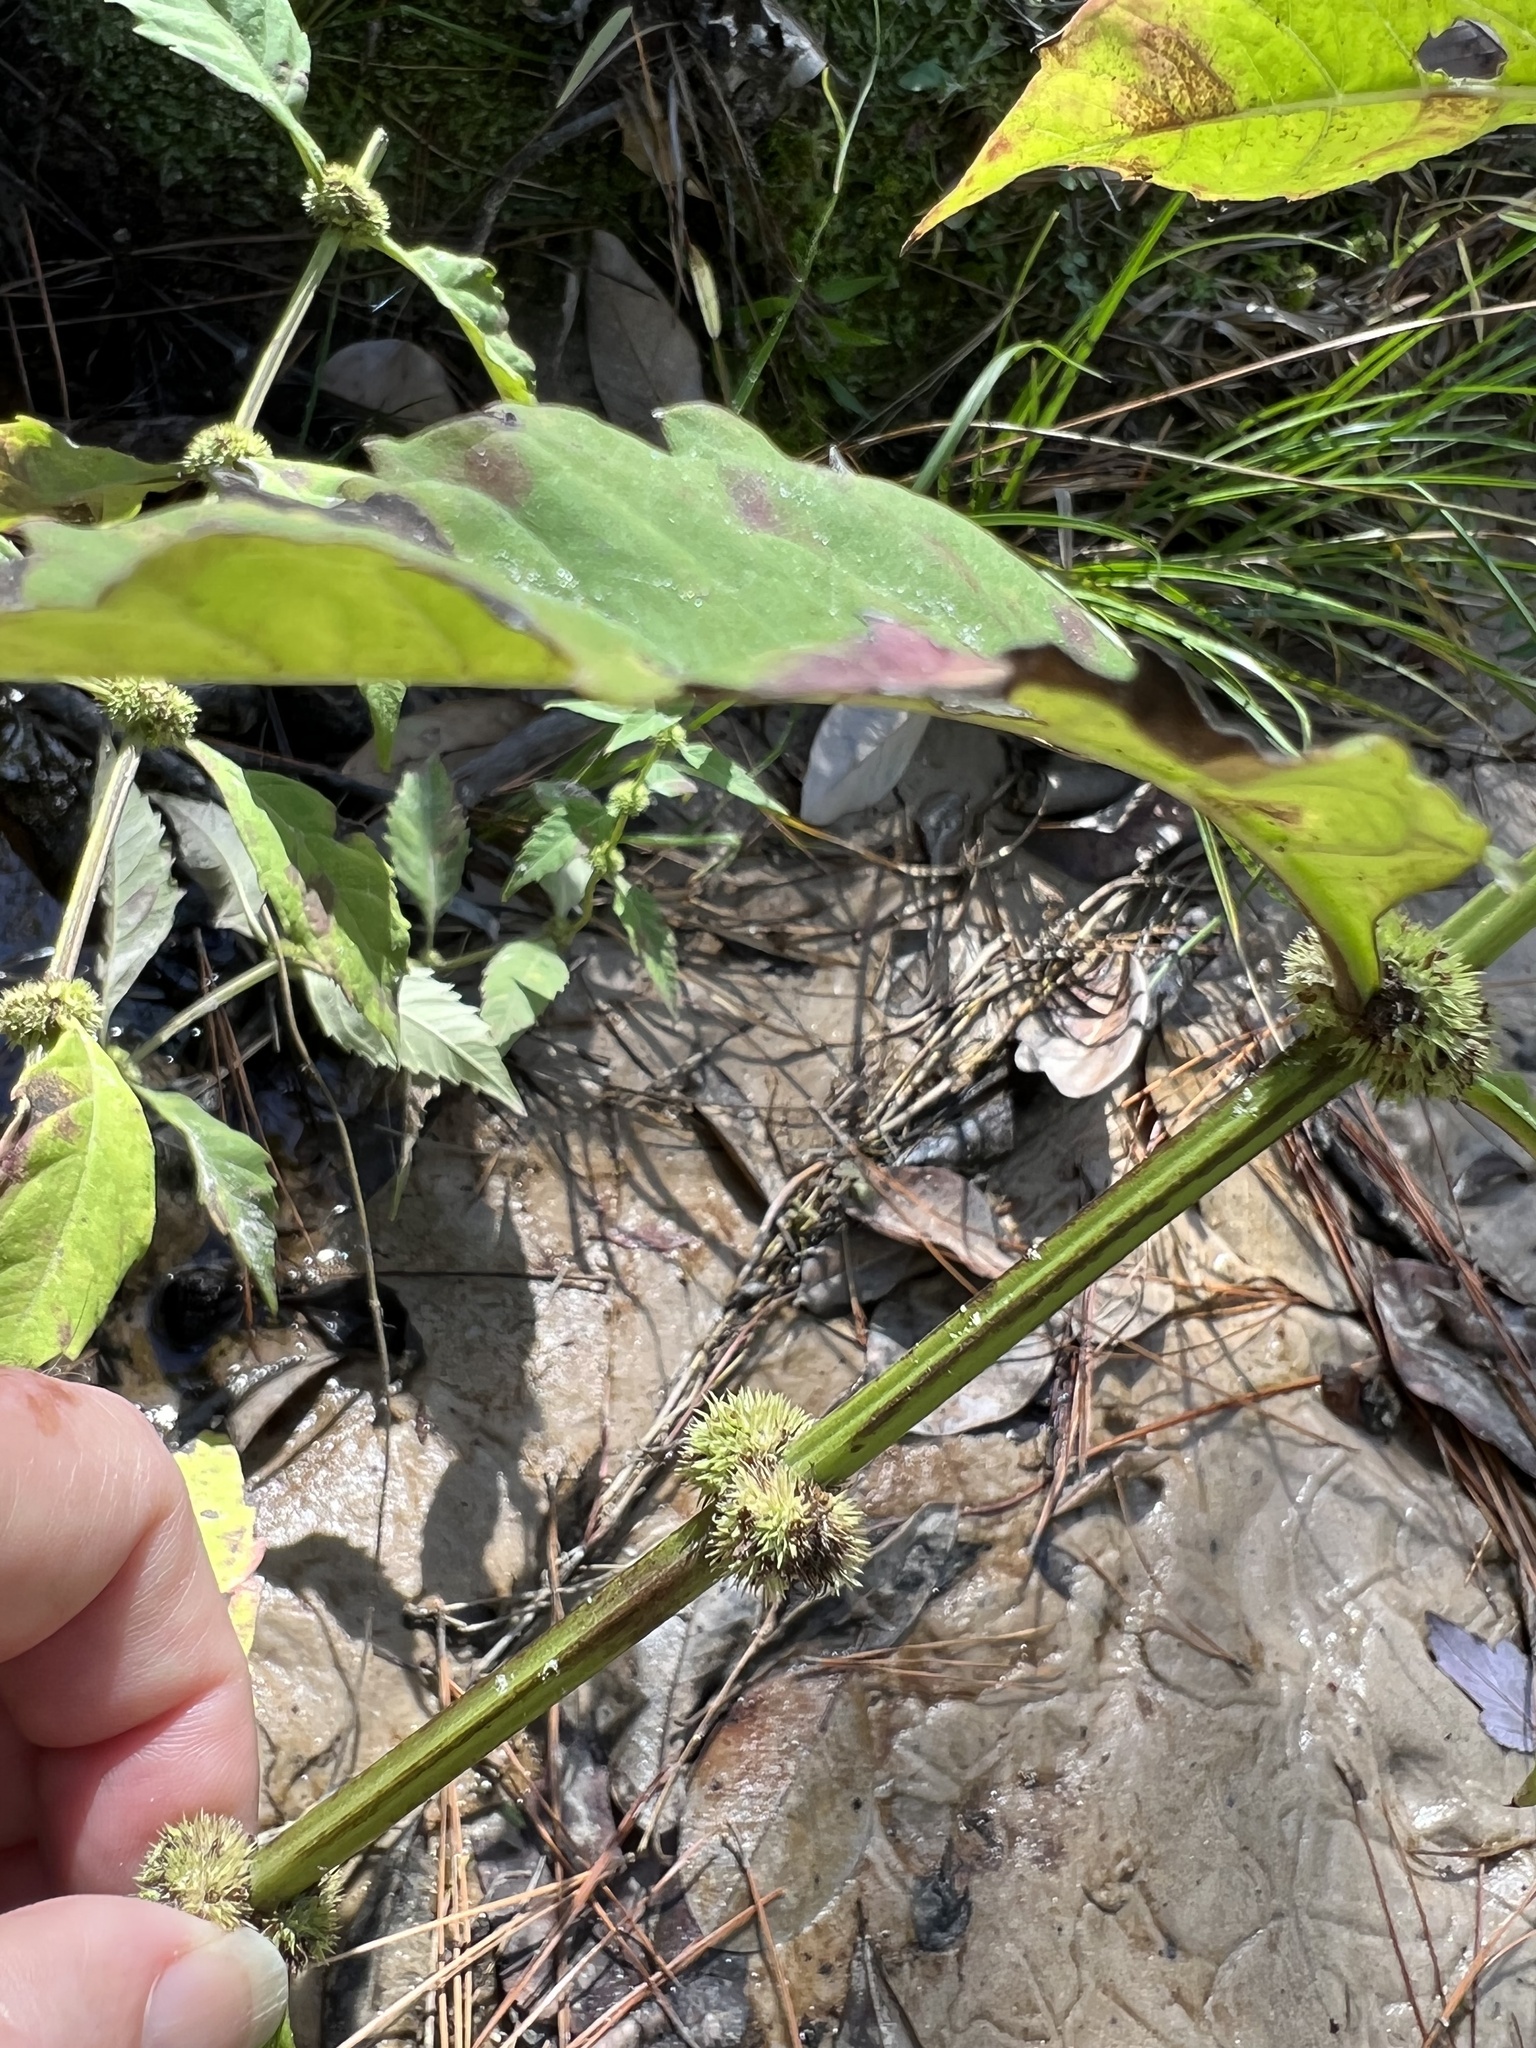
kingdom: Plantae
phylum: Tracheophyta
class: Magnoliopsida
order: Lamiales
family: Lamiaceae
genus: Lycopus
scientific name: Lycopus rubellus
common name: Stalked bugleweed
